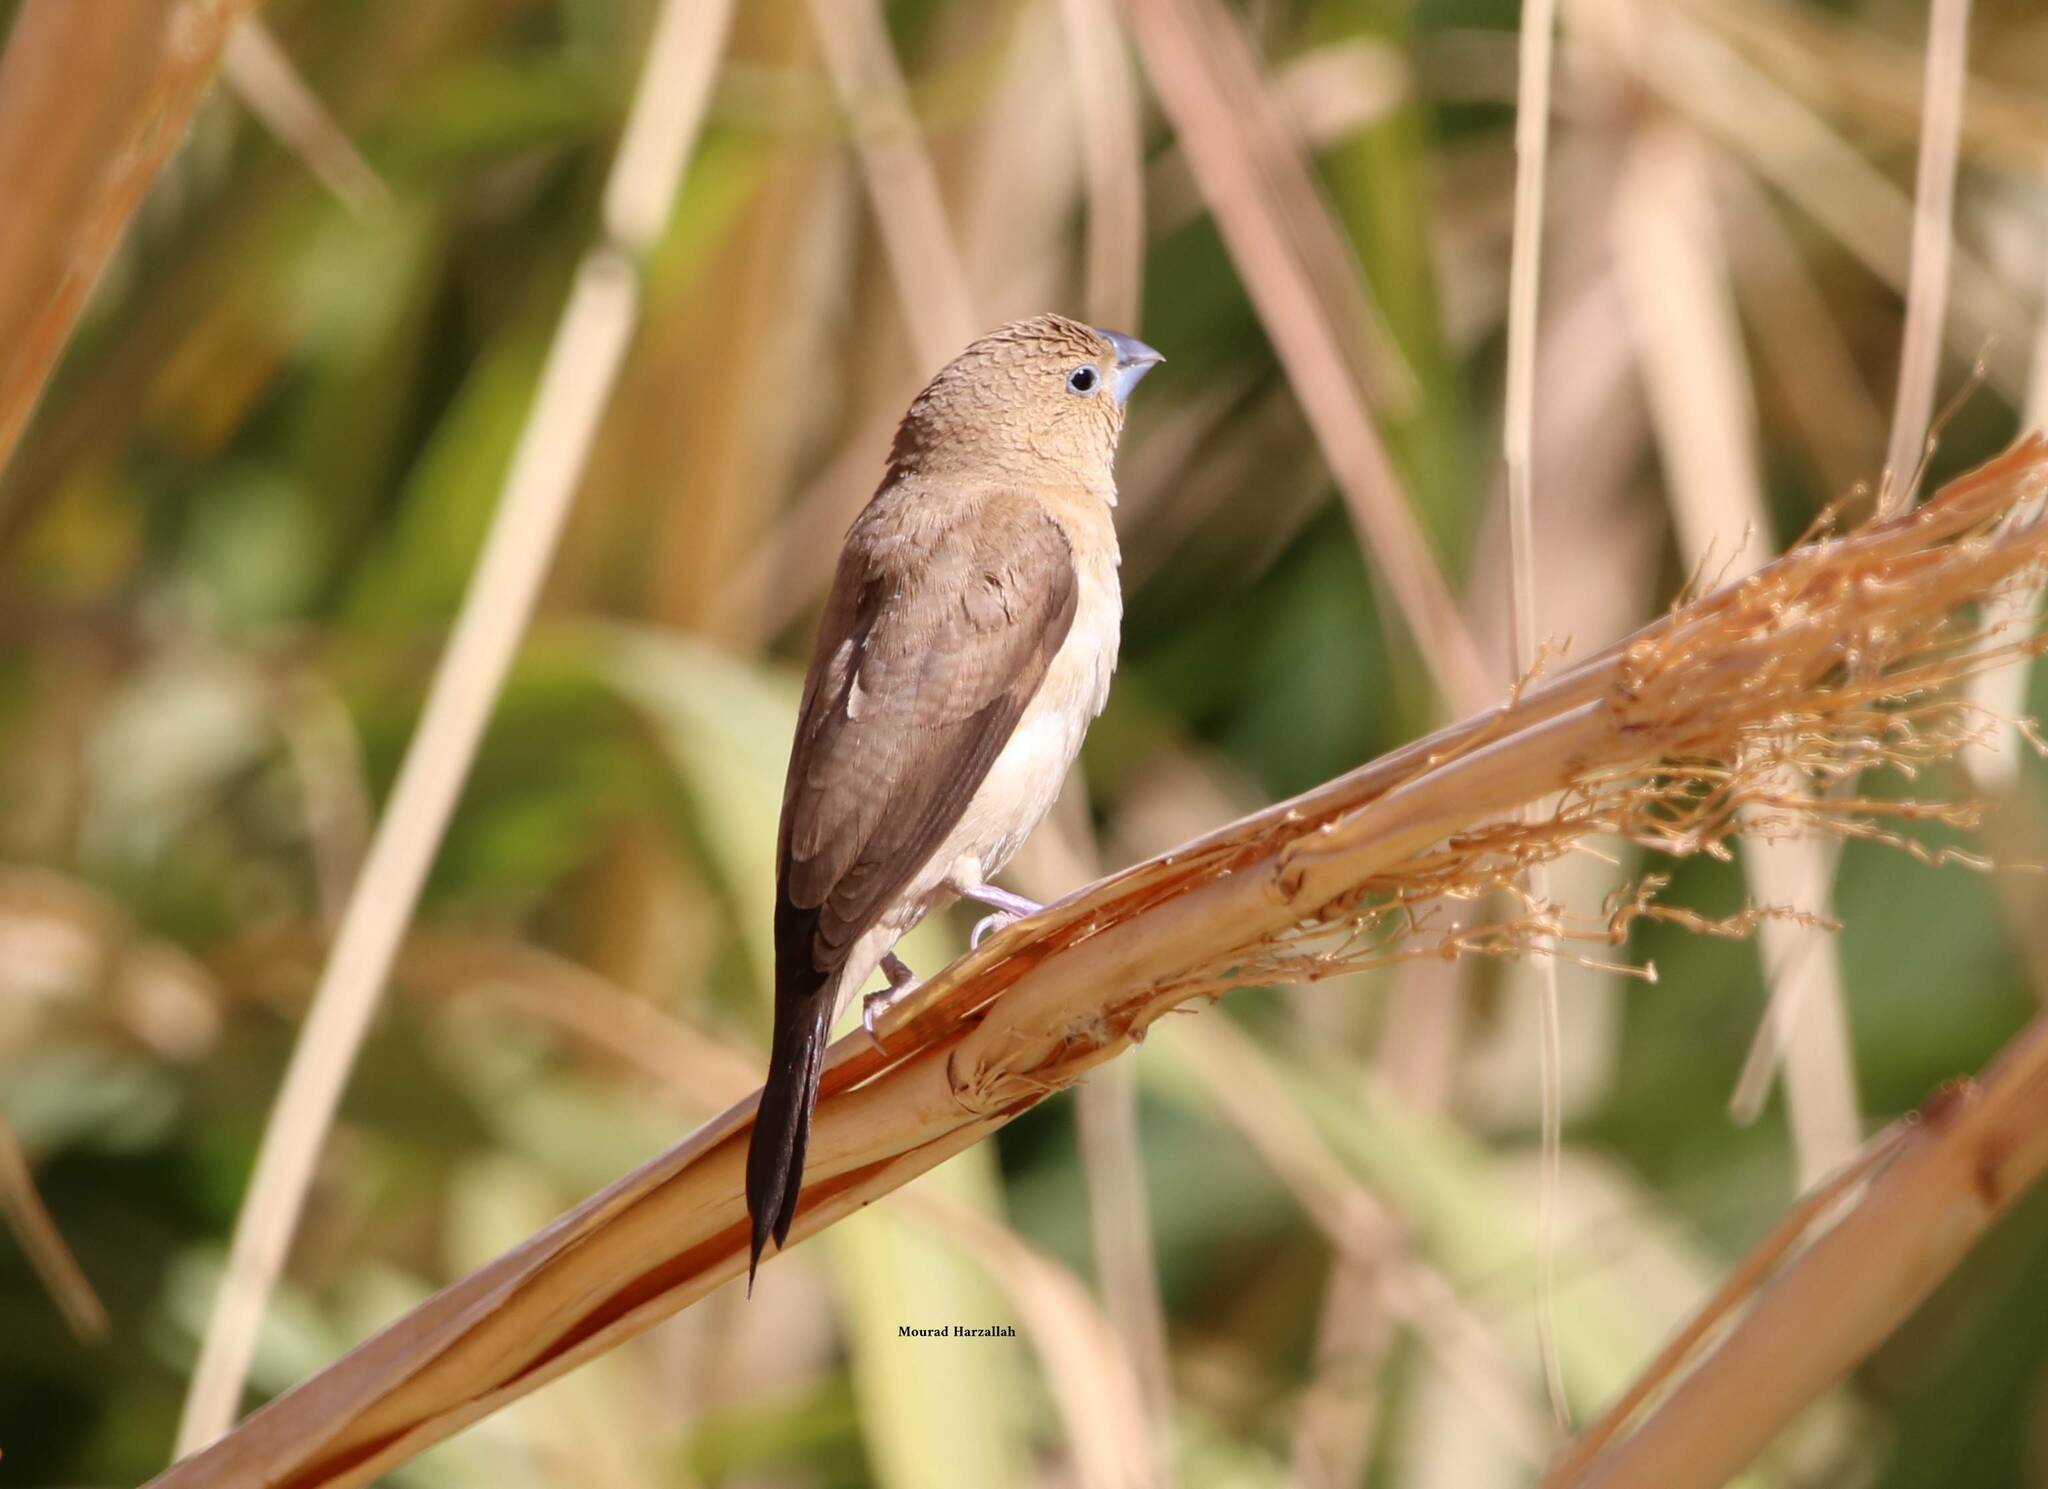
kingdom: Animalia
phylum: Chordata
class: Aves
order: Passeriformes
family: Estrildidae
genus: Euodice
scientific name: Euodice cantans
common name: African silverbill
